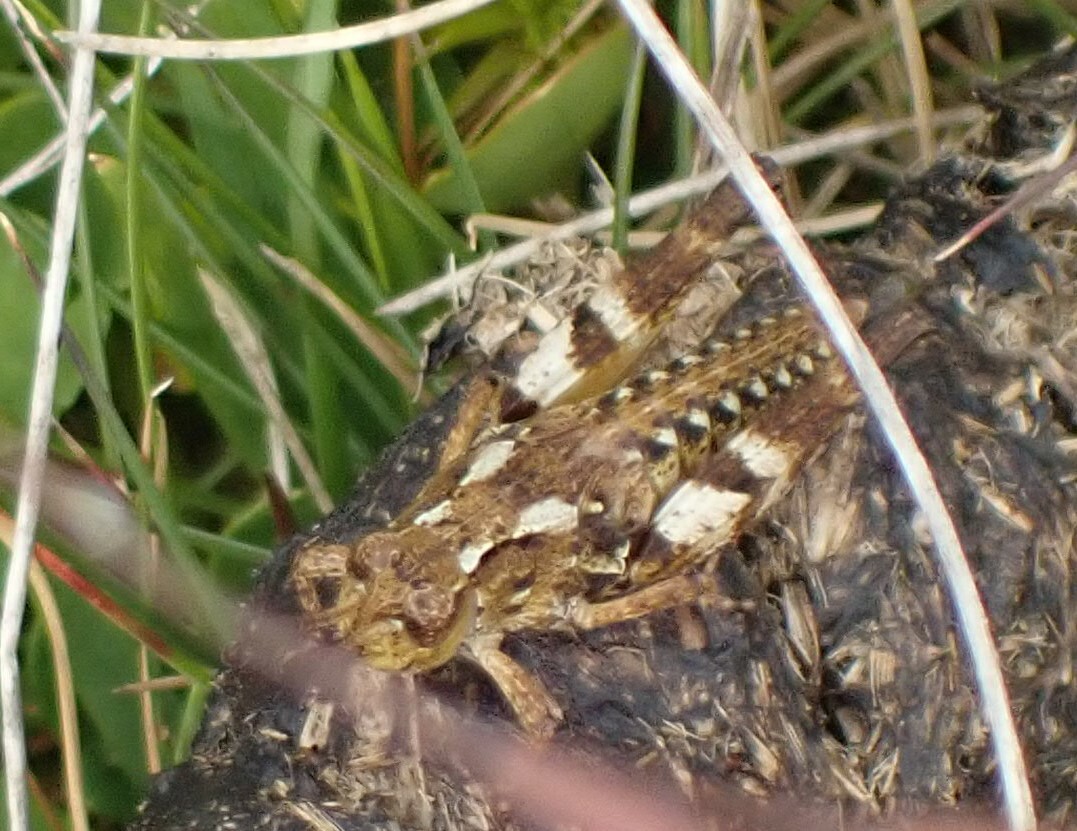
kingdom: Animalia
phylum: Arthropoda
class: Insecta
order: Orthoptera
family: Acrididae
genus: Phaulacridium
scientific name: Phaulacridium vittatum
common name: Wingless grasshopper
